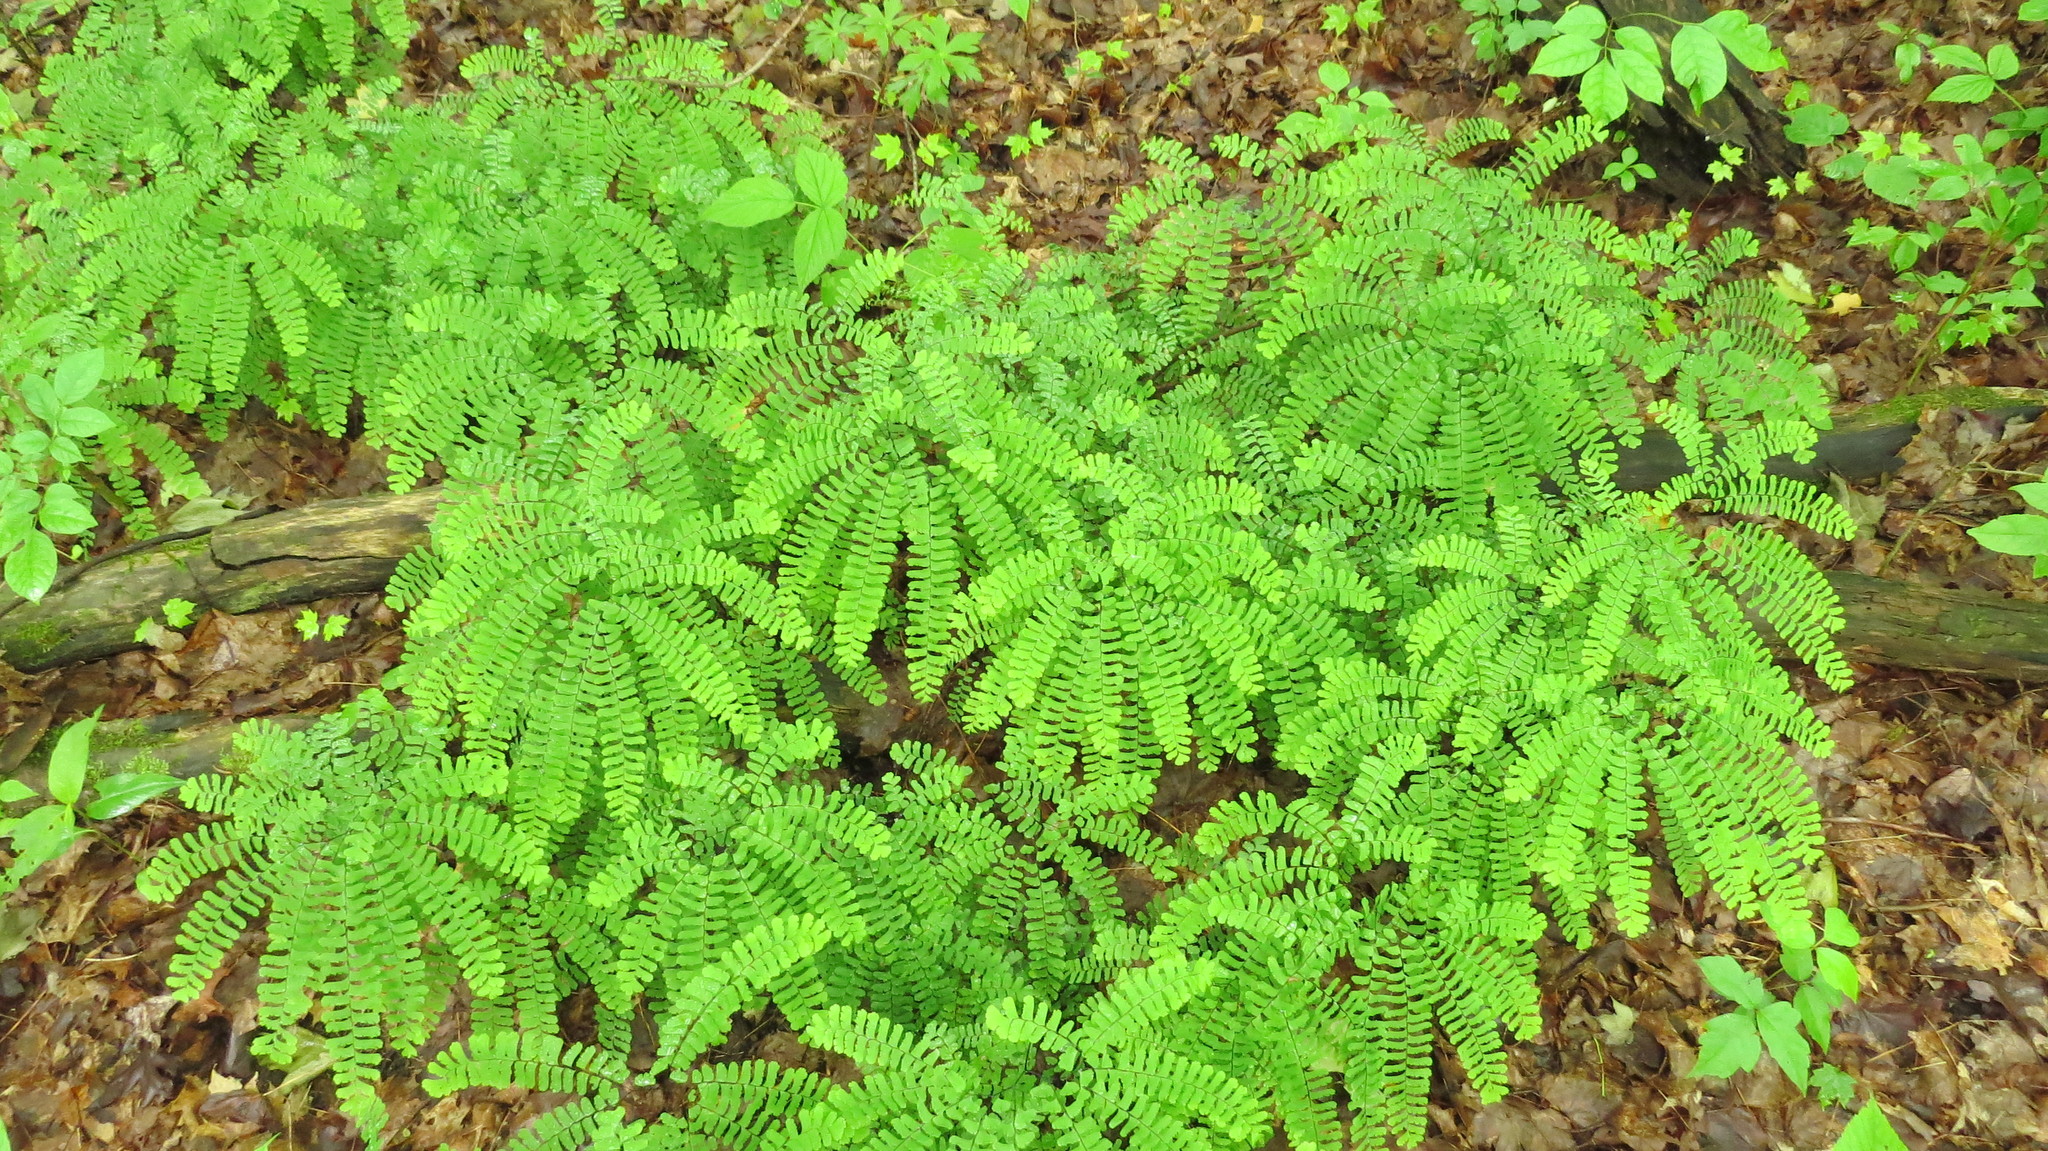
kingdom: Plantae
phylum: Tracheophyta
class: Polypodiopsida
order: Polypodiales
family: Pteridaceae
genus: Adiantum
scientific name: Adiantum pedatum
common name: Five-finger fern
